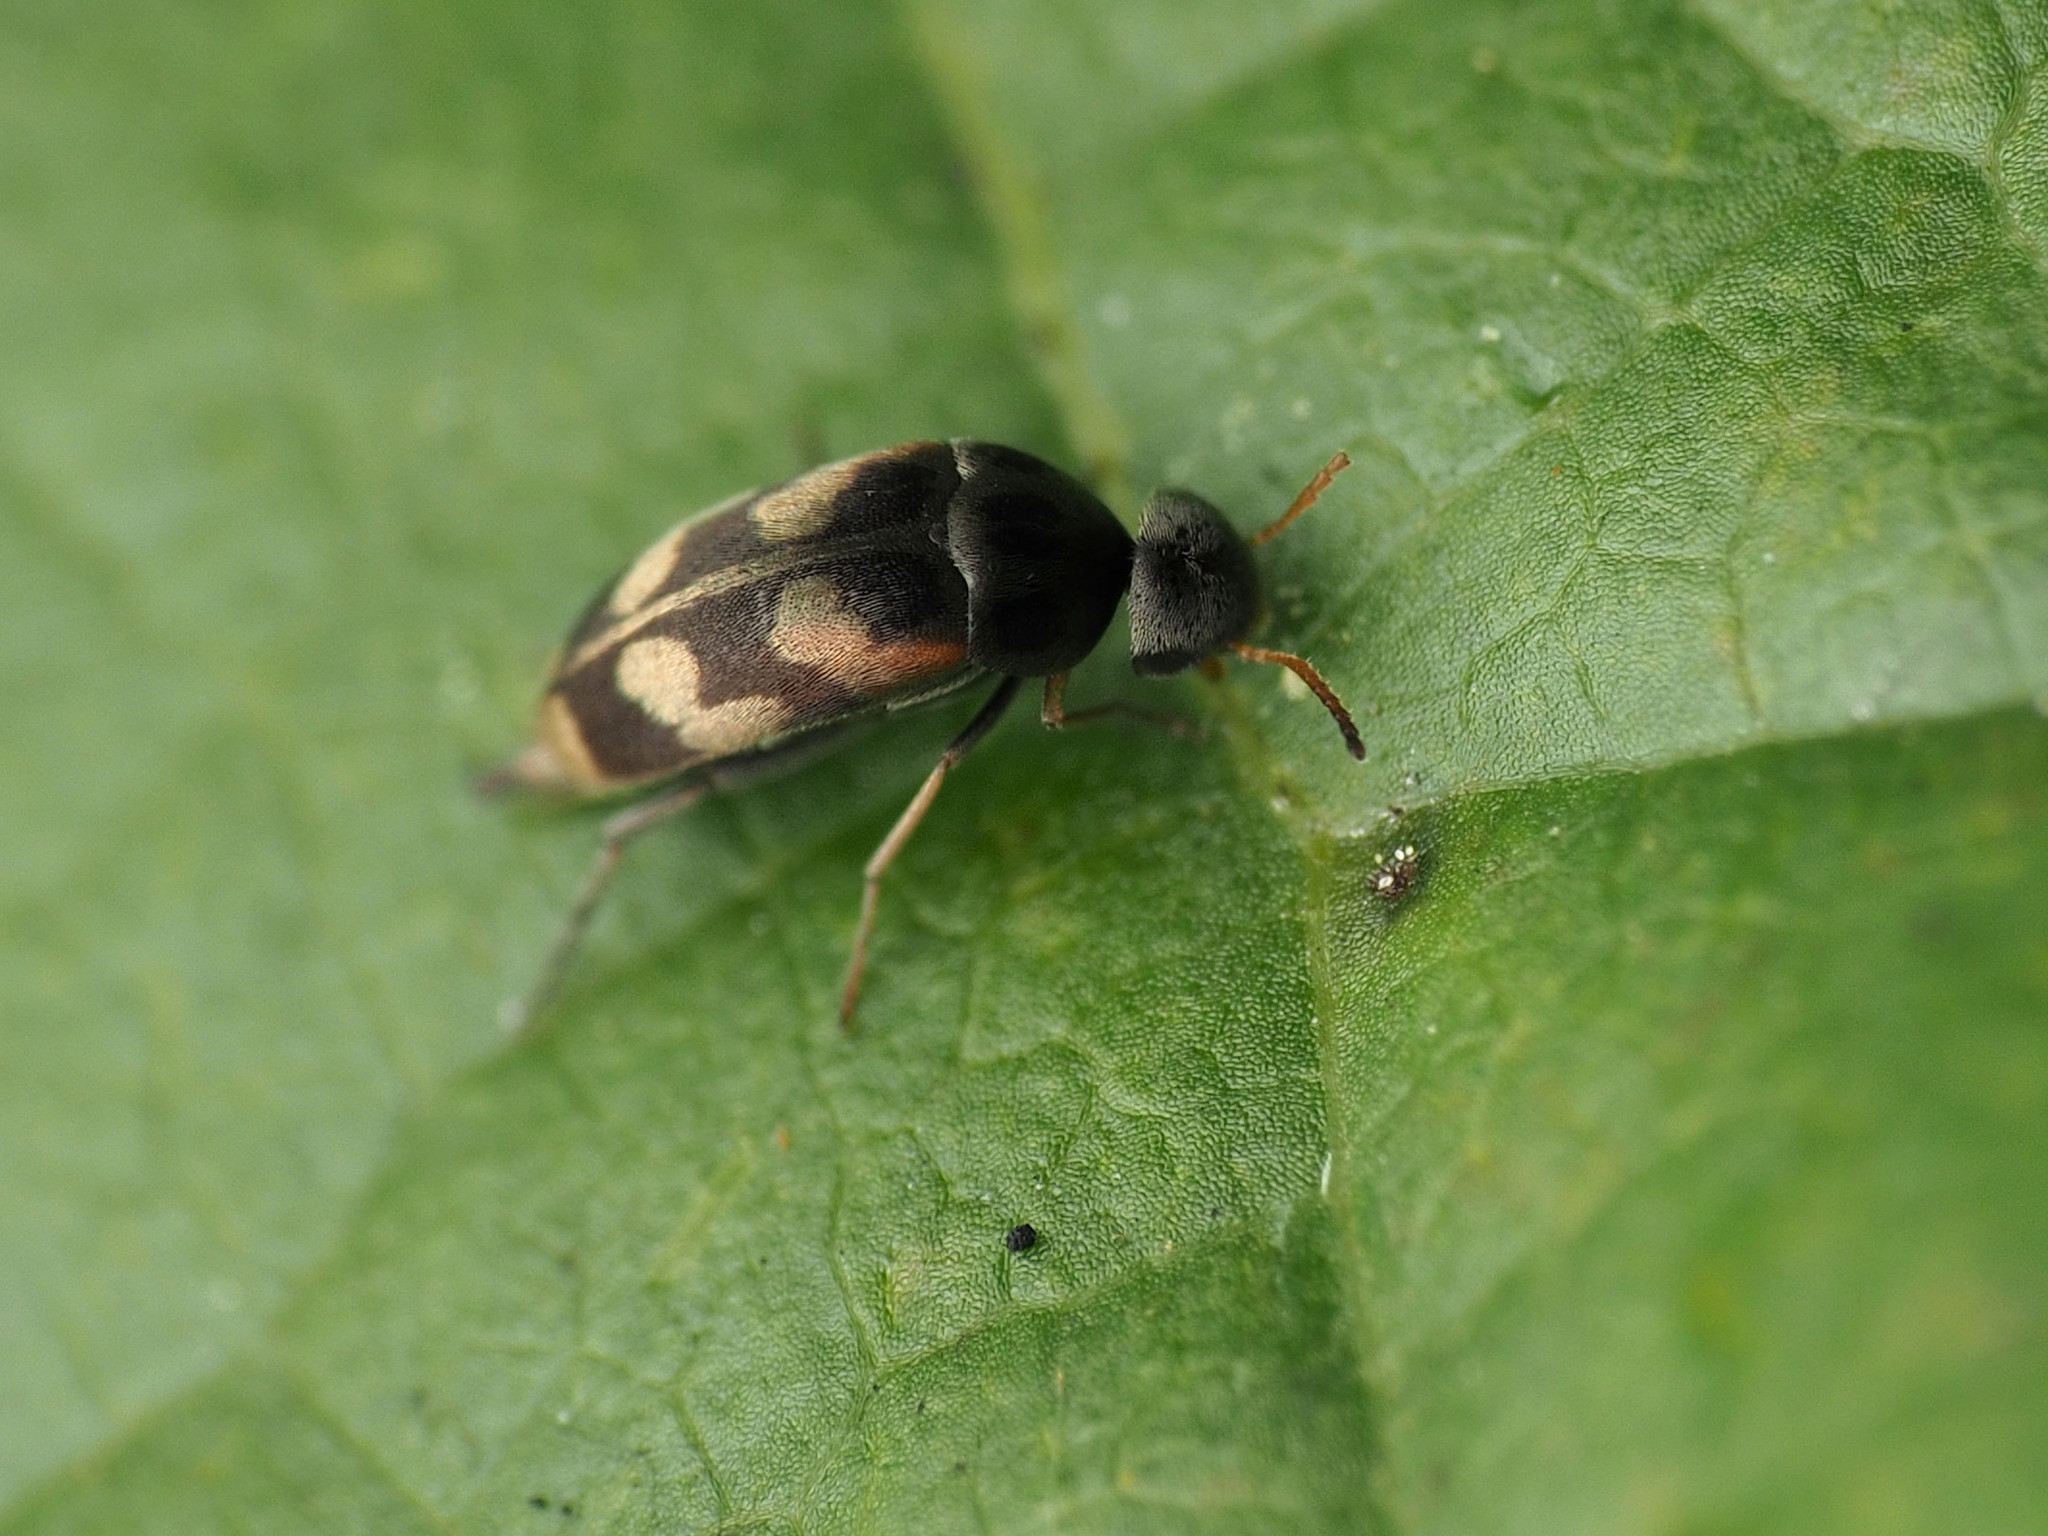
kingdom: Animalia
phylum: Arthropoda
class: Insecta
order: Coleoptera
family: Mordellidae
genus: Falsomordellistena
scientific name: Falsomordellistena pubescens
